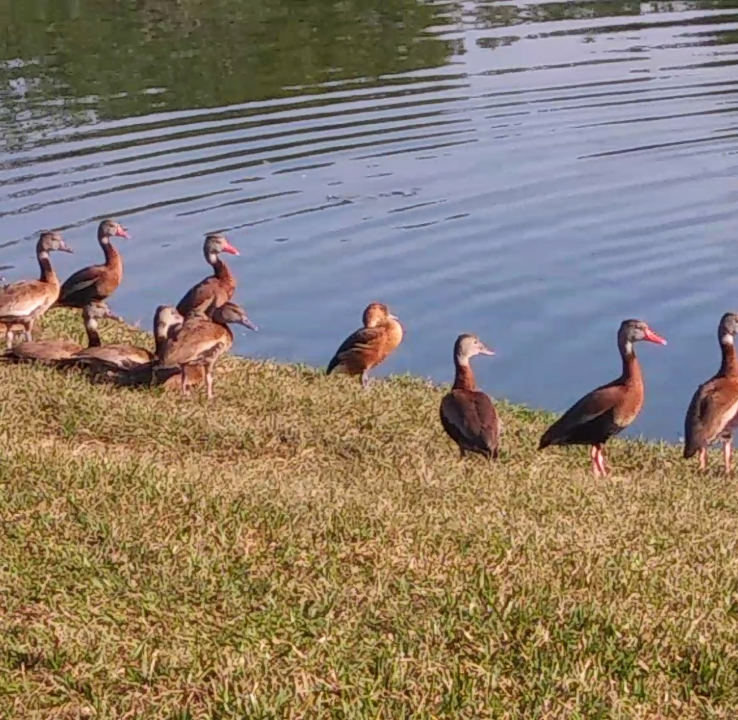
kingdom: Animalia
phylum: Chordata
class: Aves
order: Anseriformes
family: Anatidae
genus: Dendrocygna
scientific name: Dendrocygna bicolor
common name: Fulvous whistling duck
